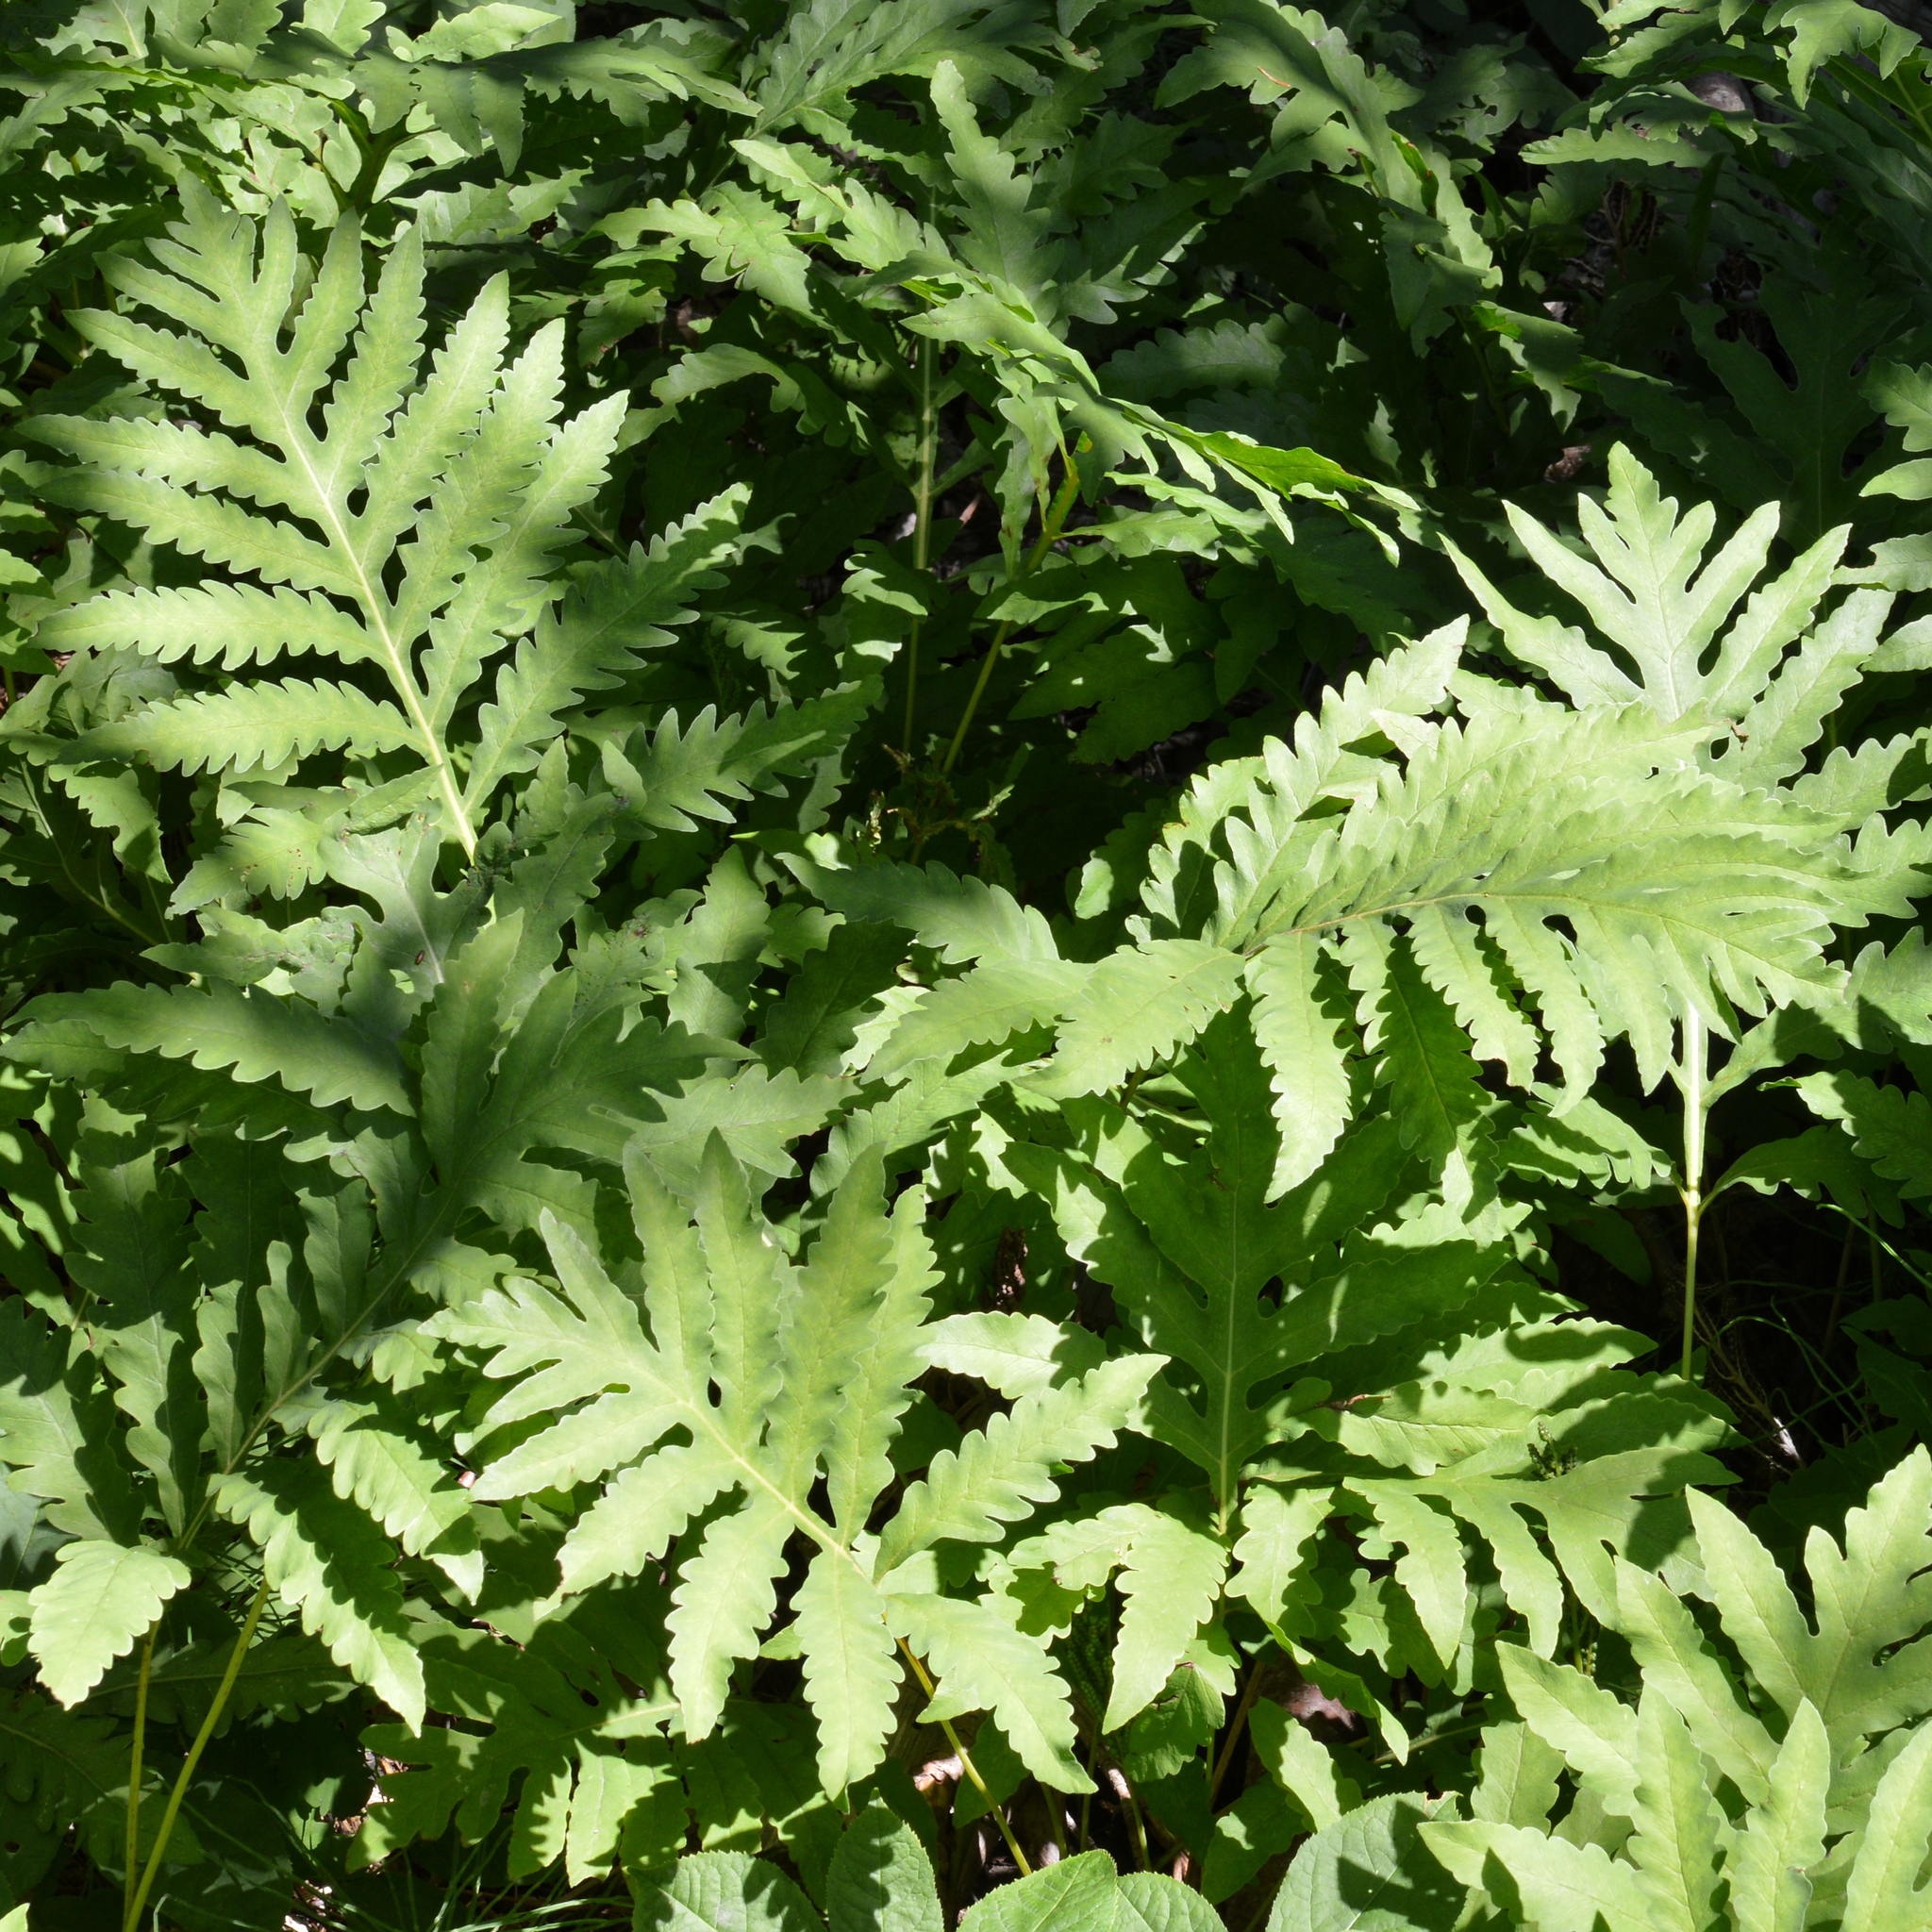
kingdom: Plantae
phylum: Tracheophyta
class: Polypodiopsida
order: Polypodiales
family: Onocleaceae
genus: Onoclea
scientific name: Onoclea sensibilis
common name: Sensitive fern
